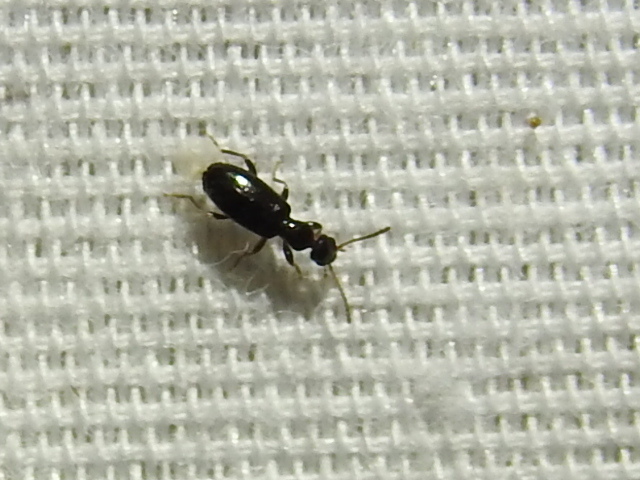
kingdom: Animalia
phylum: Arthropoda
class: Insecta
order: Coleoptera
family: Anthicidae
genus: Vacusus
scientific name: Vacusus confinis
